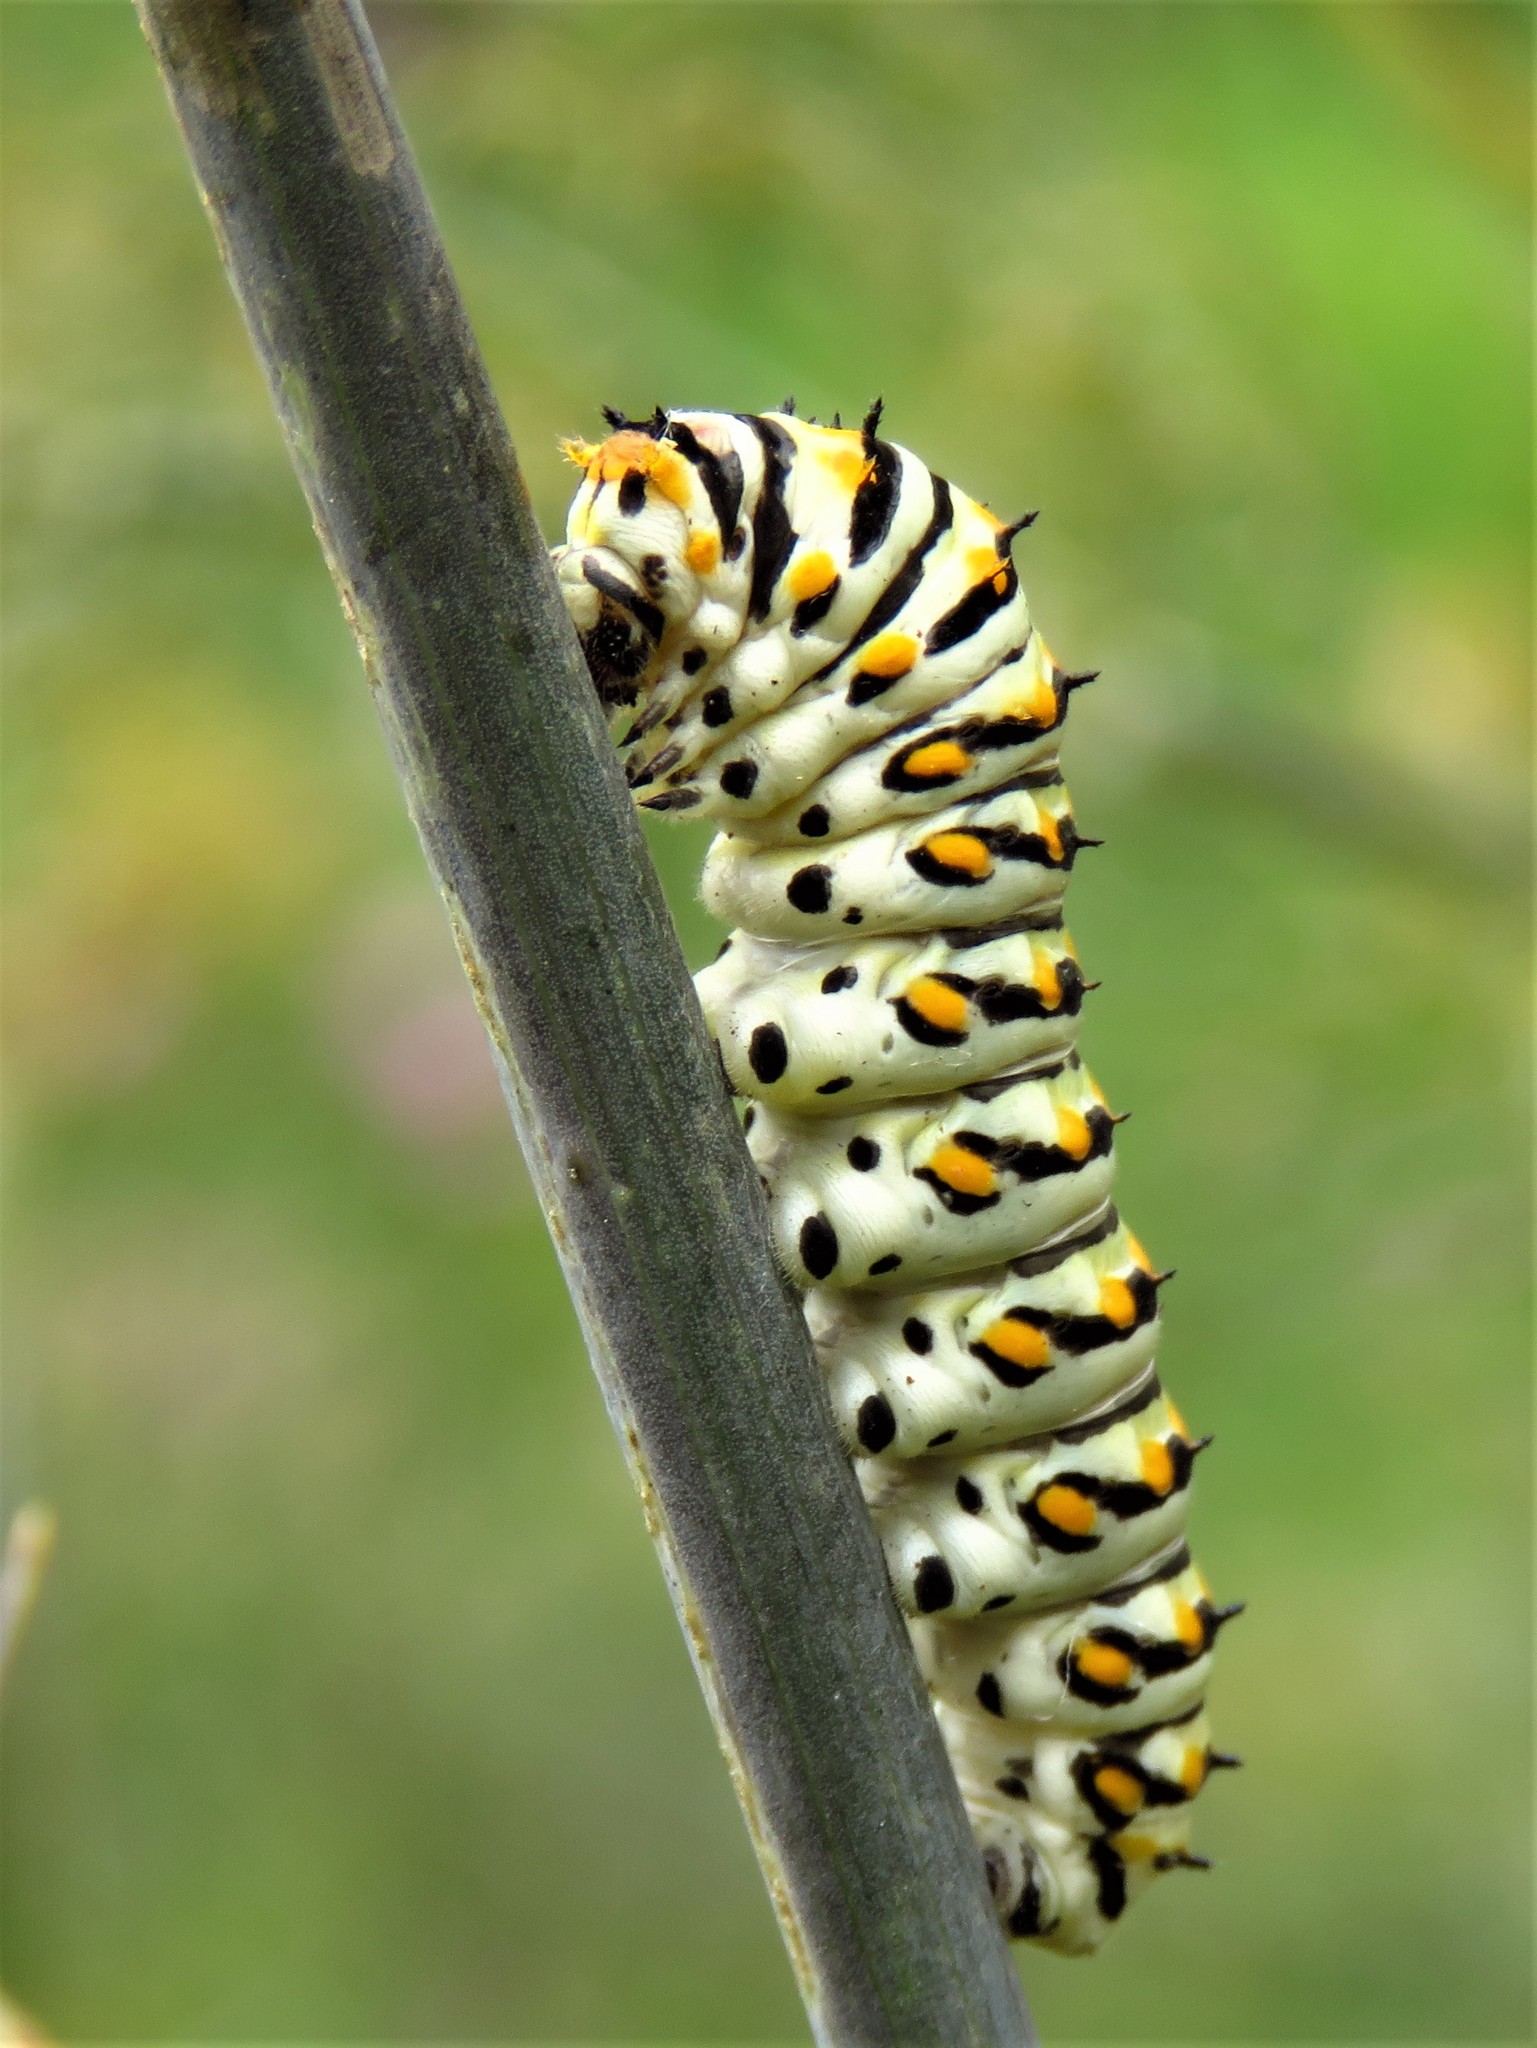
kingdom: Animalia
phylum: Arthropoda
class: Insecta
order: Lepidoptera
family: Papilionidae
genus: Papilio
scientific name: Papilio polyxenes
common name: Black swallowtail
